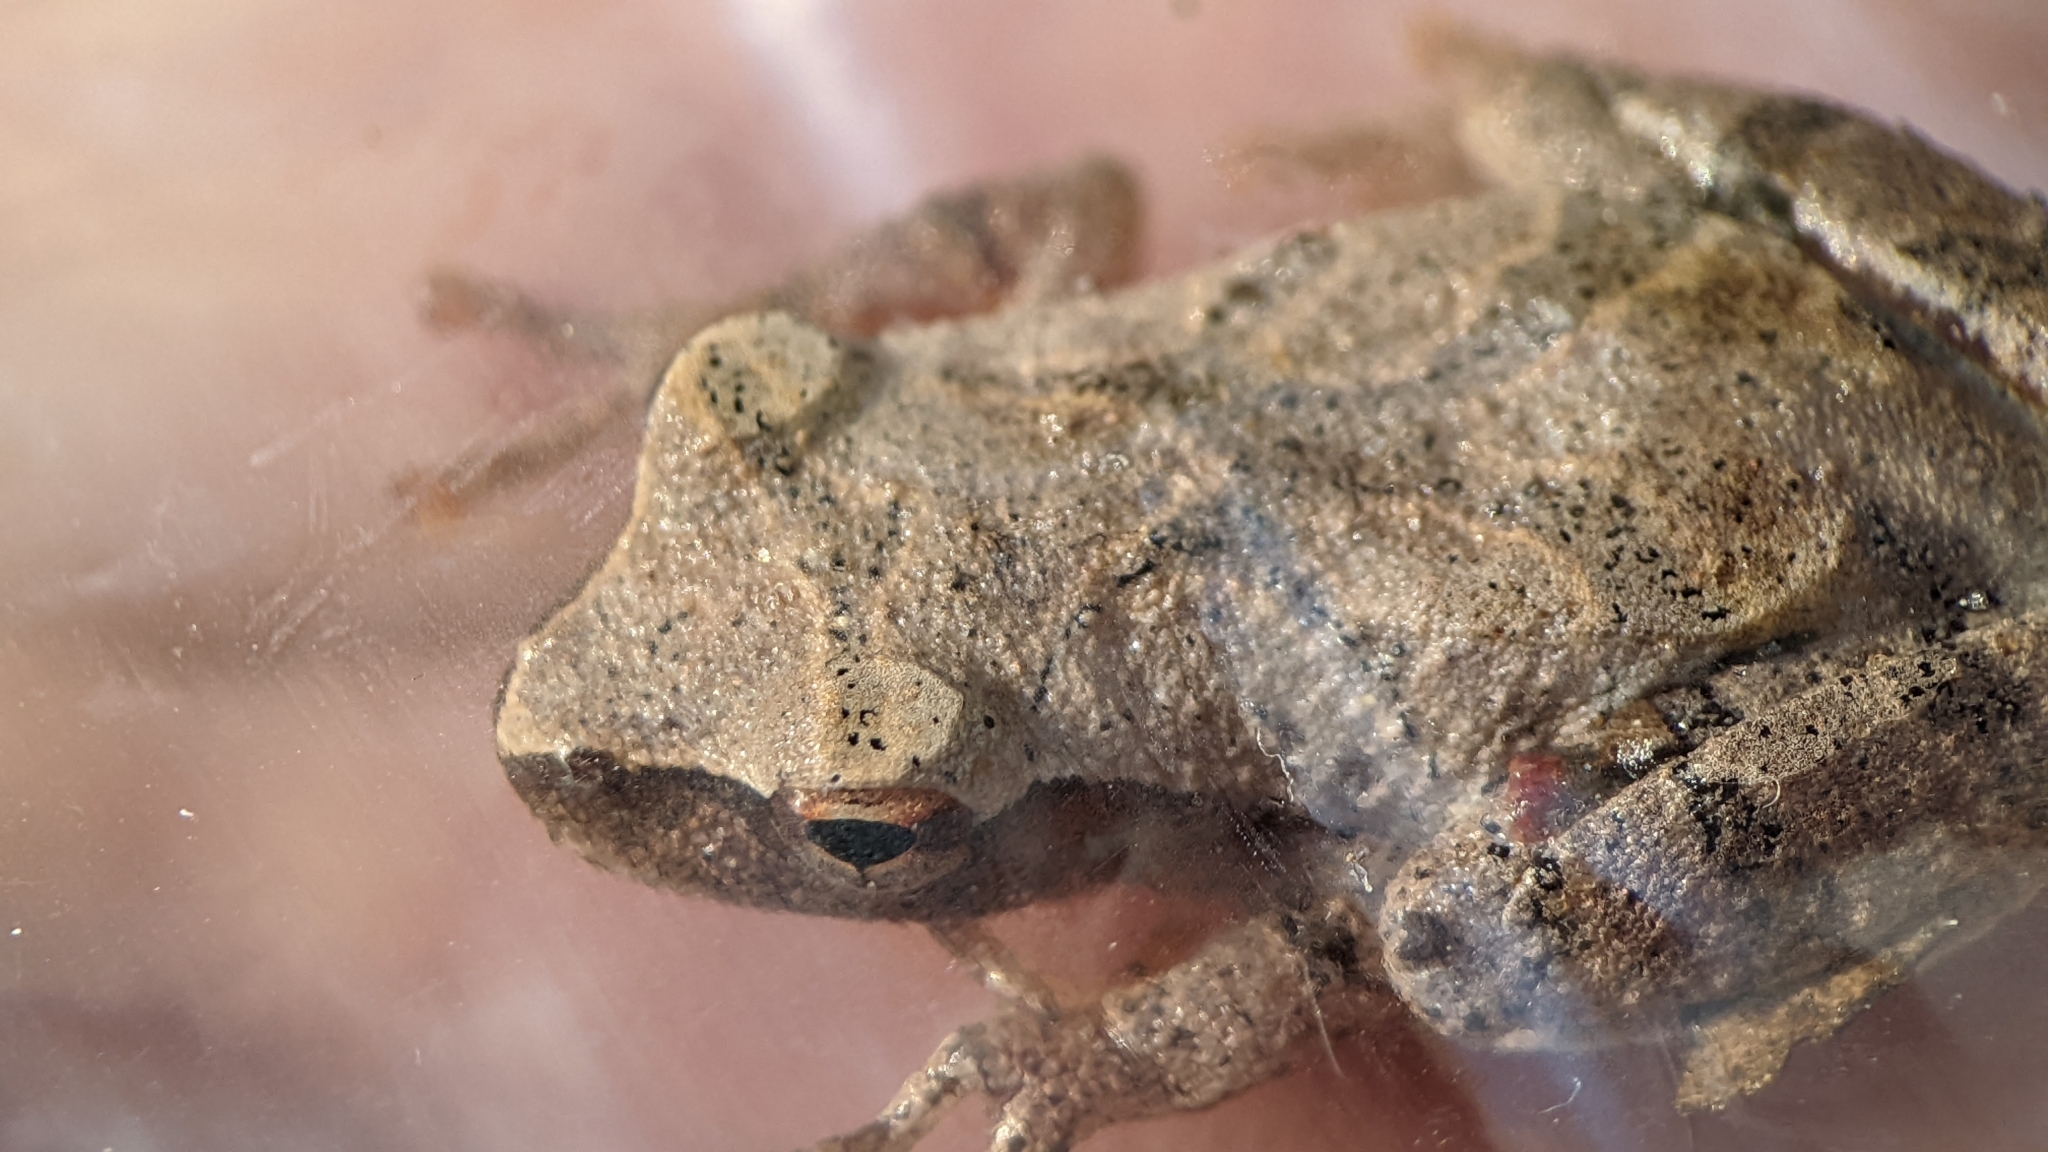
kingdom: Animalia
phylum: Chordata
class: Amphibia
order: Anura
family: Hylidae
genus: Pseudacris
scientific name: Pseudacris crucifer
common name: Spring peeper
